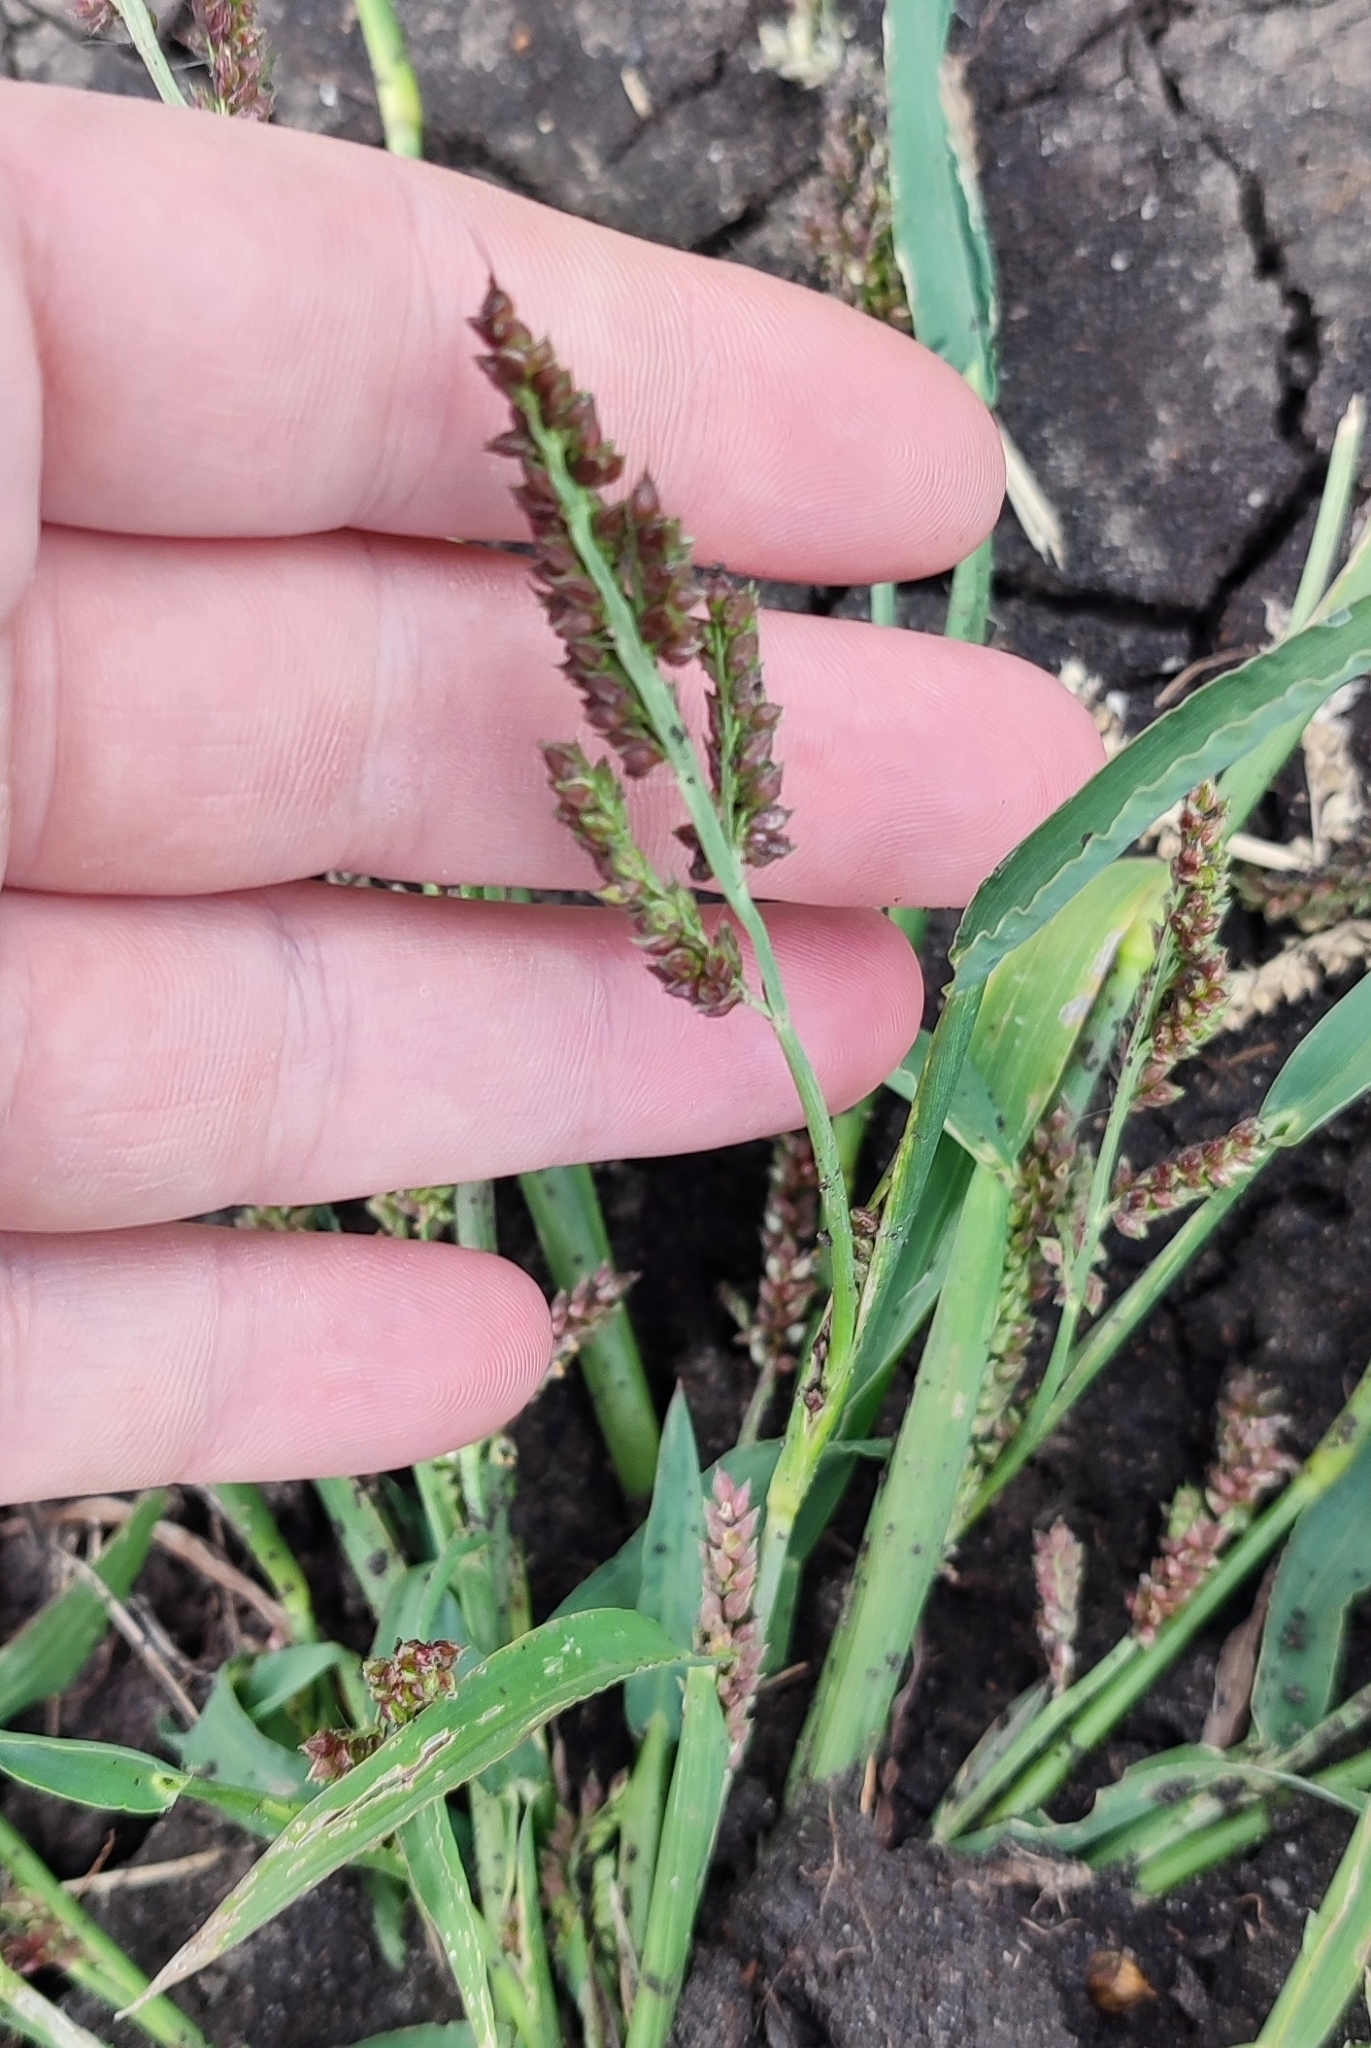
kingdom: Plantae
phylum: Tracheophyta
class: Liliopsida
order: Poales
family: Poaceae
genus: Echinochloa
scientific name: Echinochloa crus-galli
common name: Cockspur
